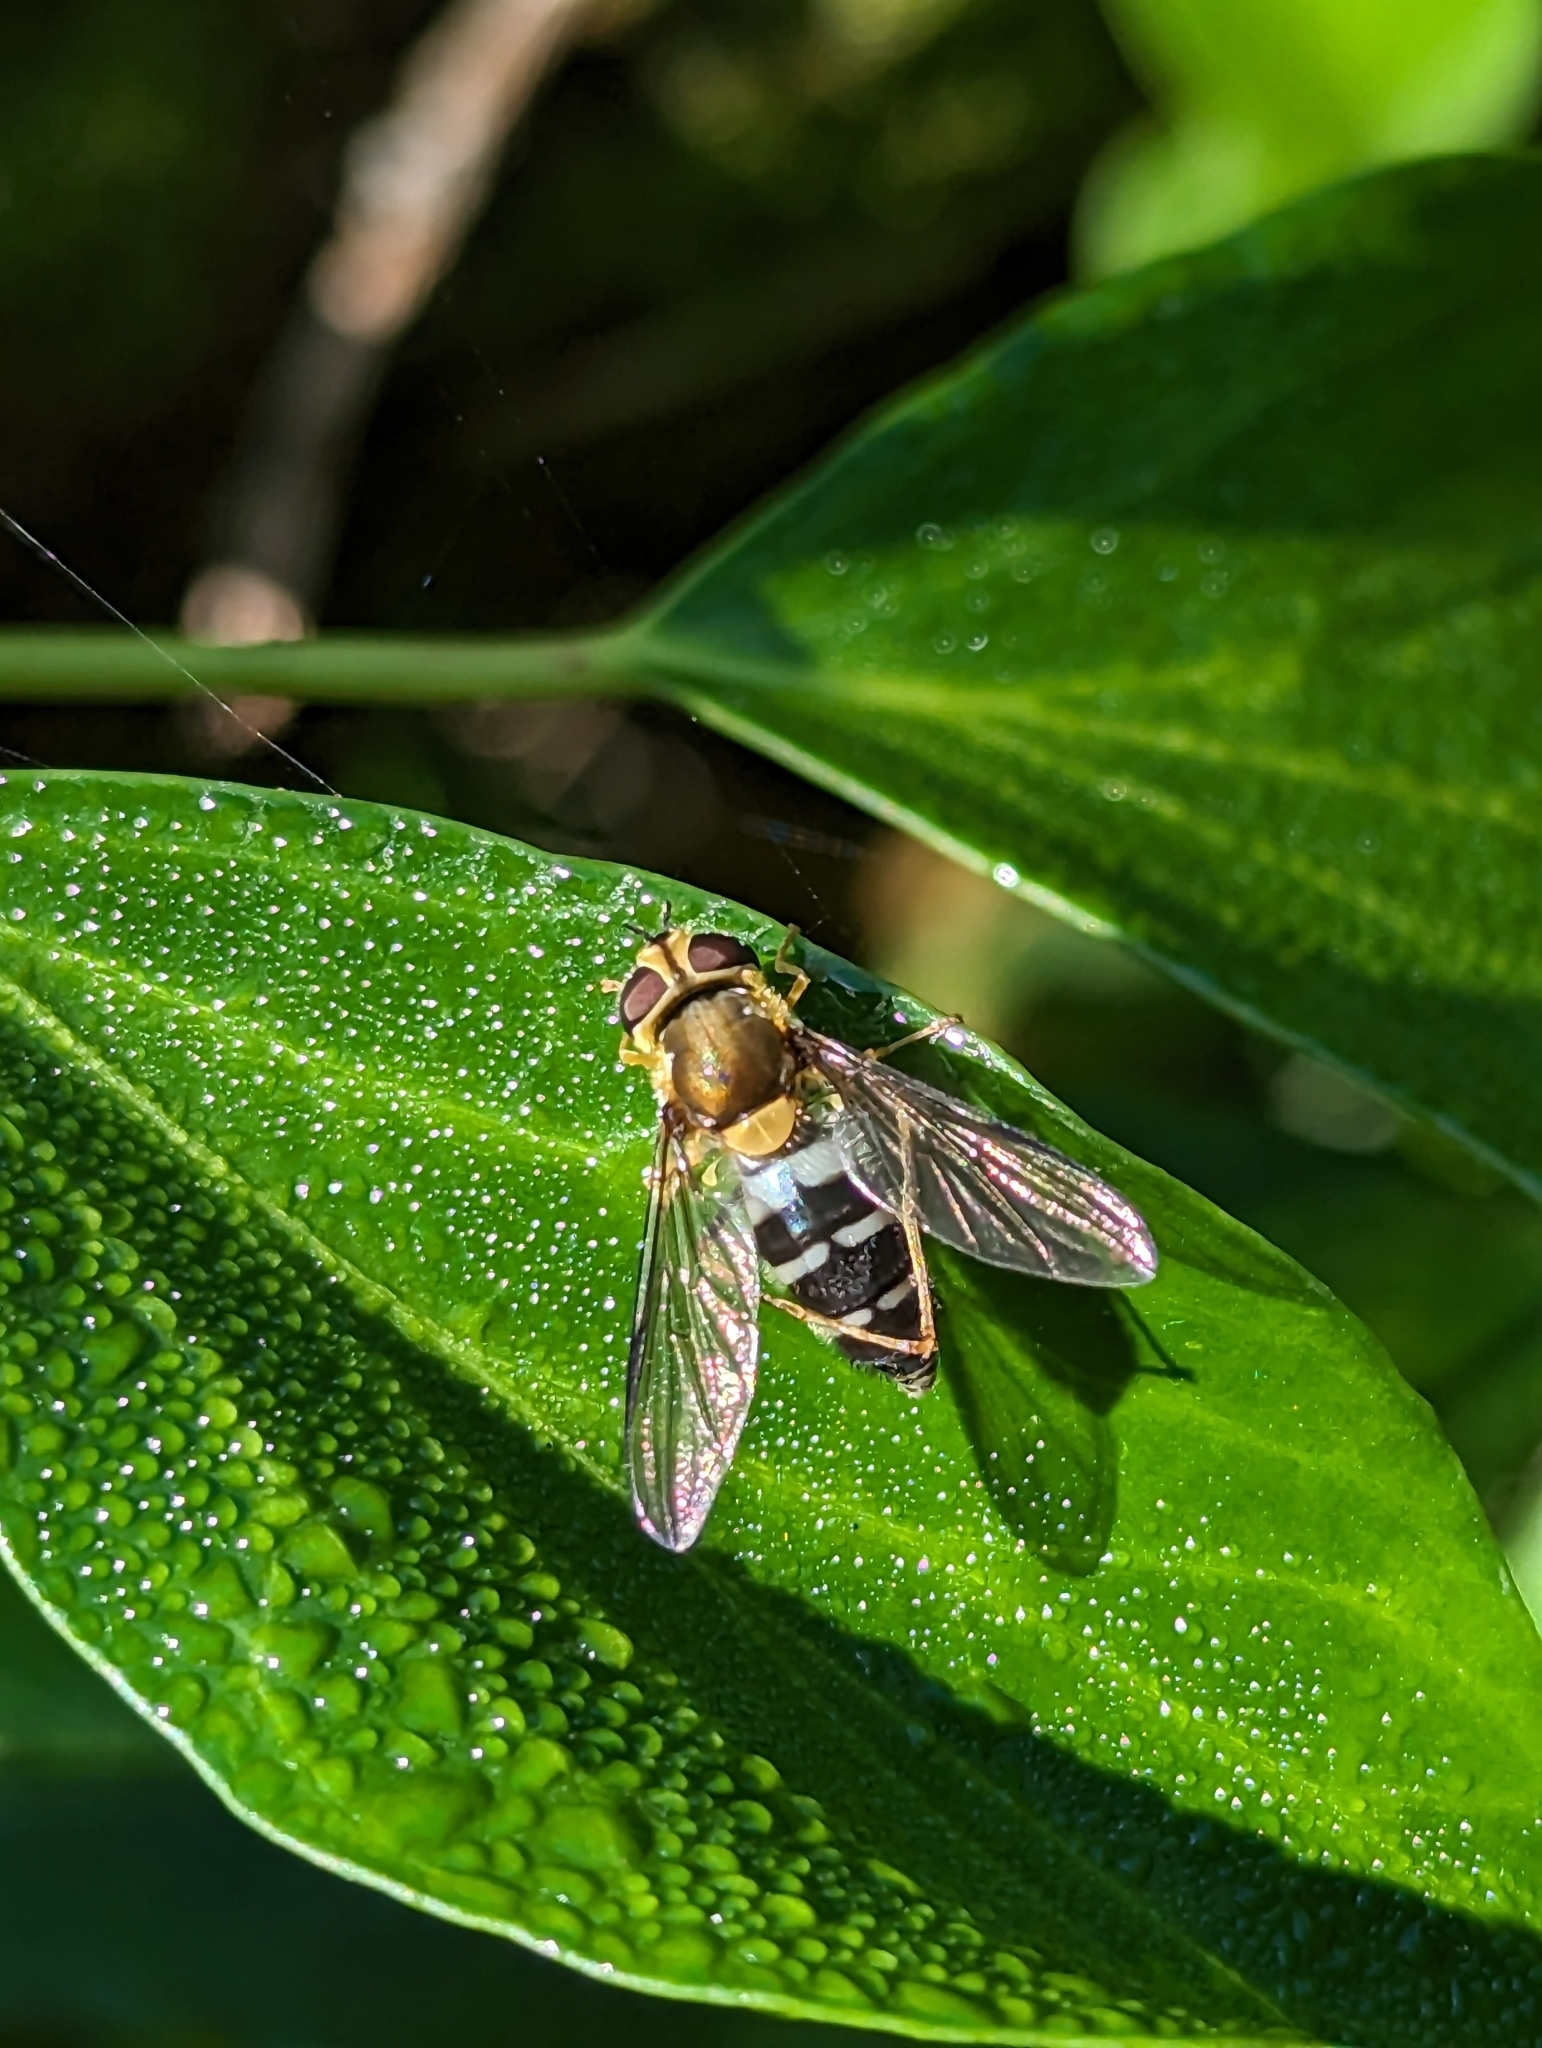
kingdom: Animalia
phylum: Arthropoda
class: Insecta
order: Diptera
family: Syrphidae
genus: Leucozona
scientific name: Leucozona glaucia
